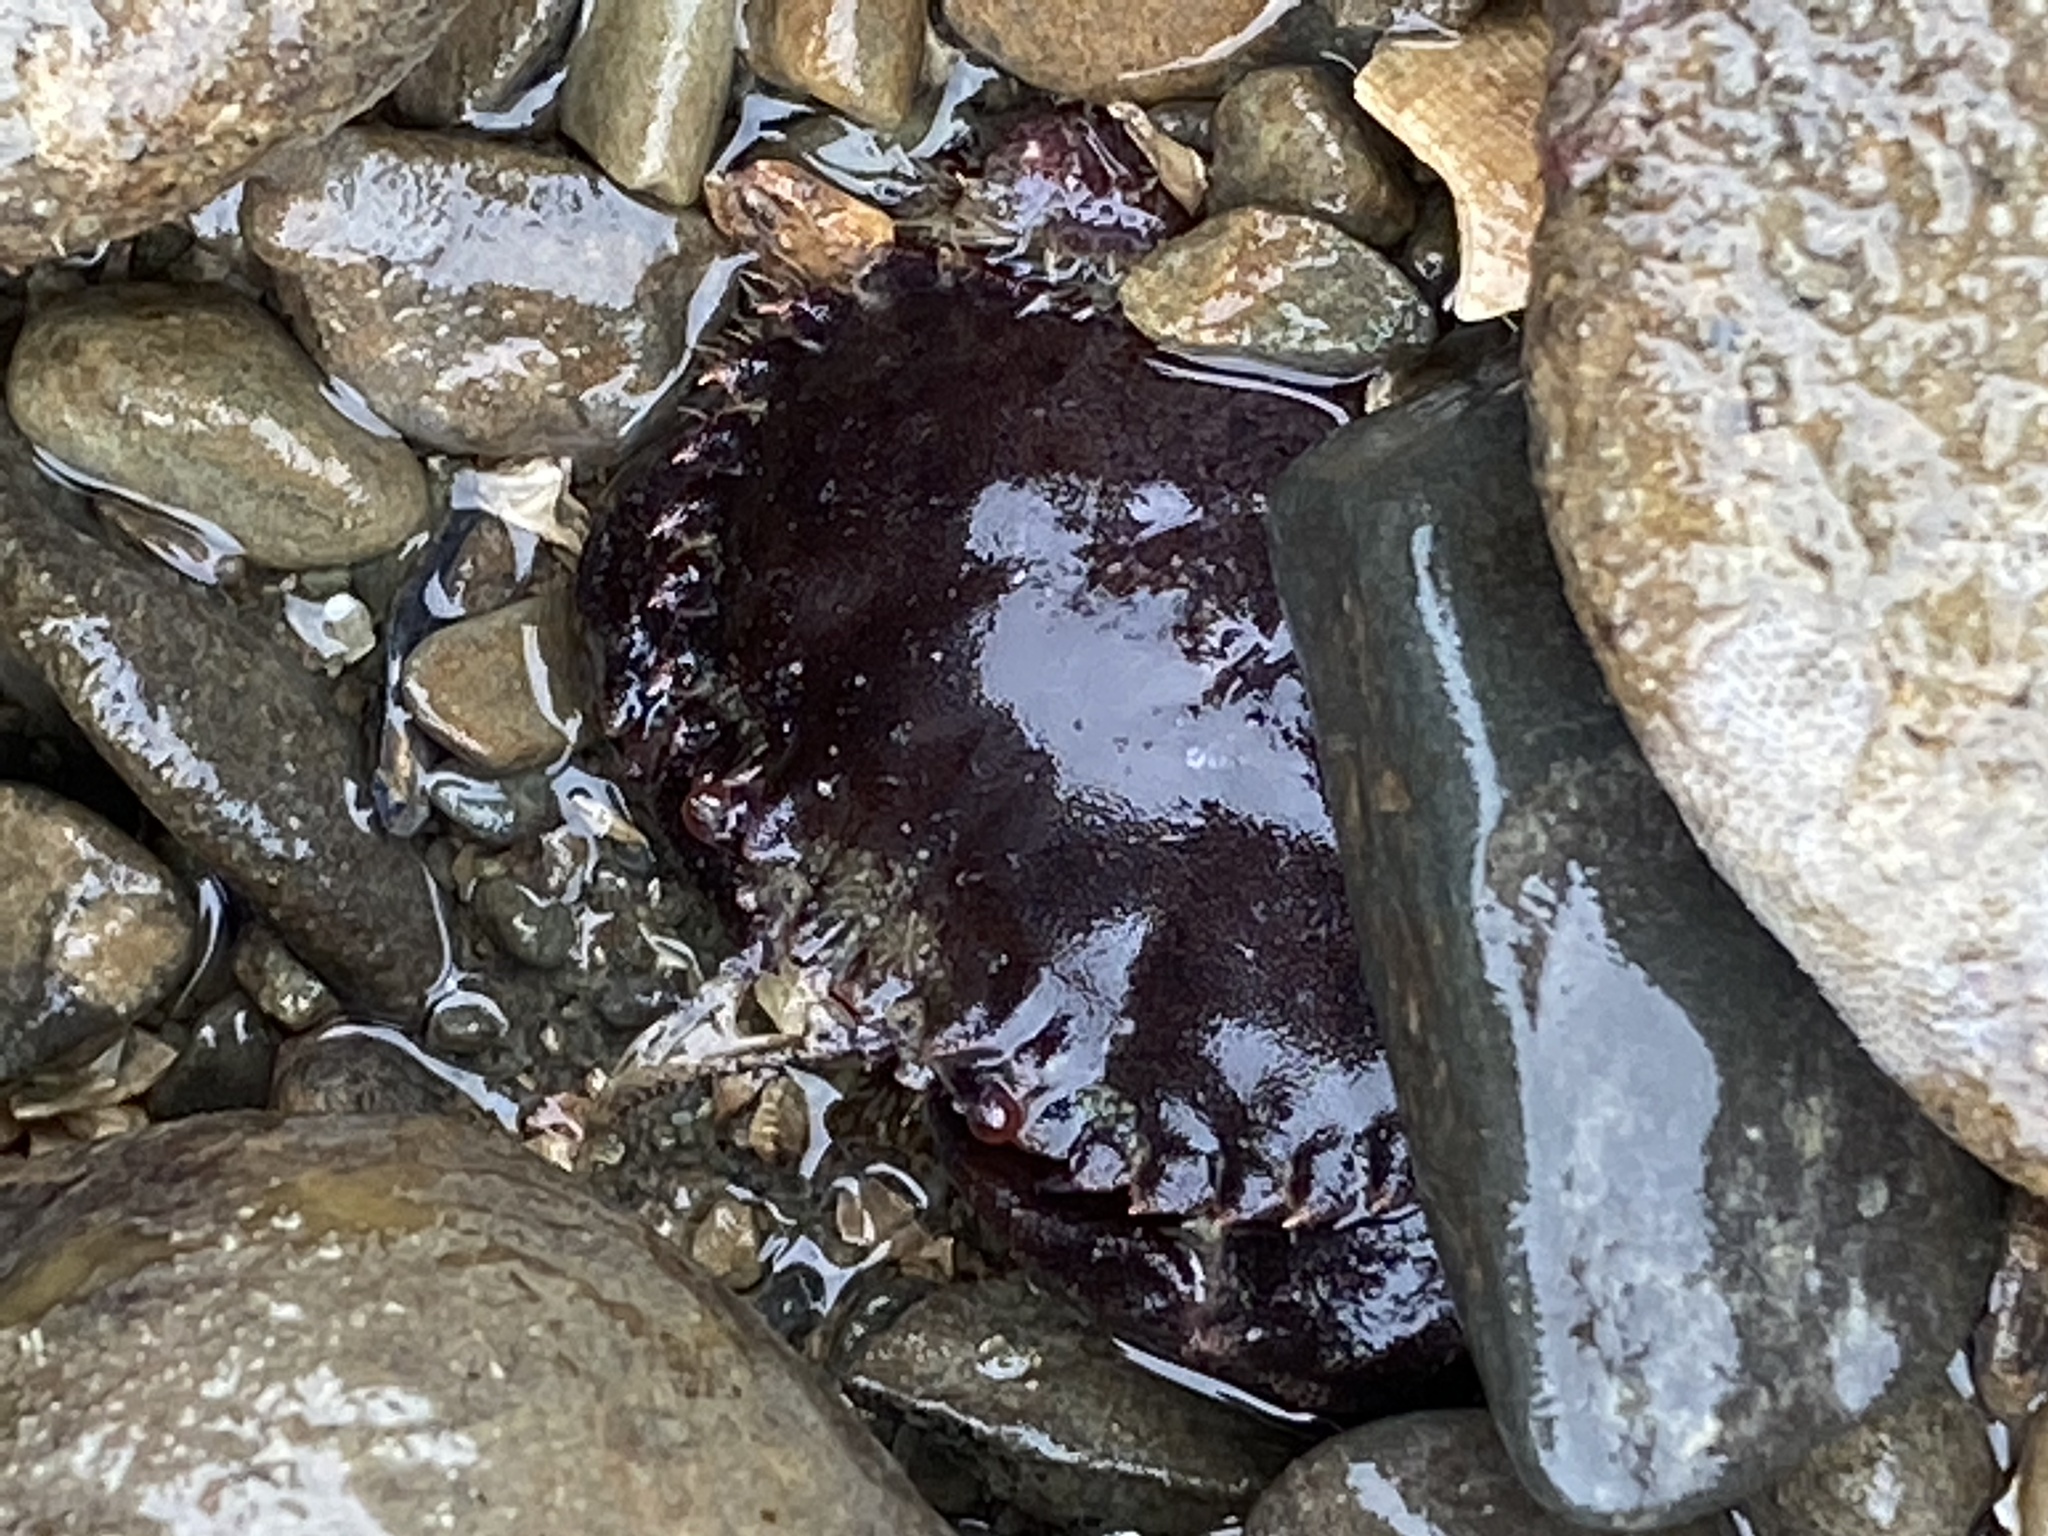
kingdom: Animalia
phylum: Arthropoda
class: Malacostraca
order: Decapoda
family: Cancridae
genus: Romaleon
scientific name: Romaleon antennarium
